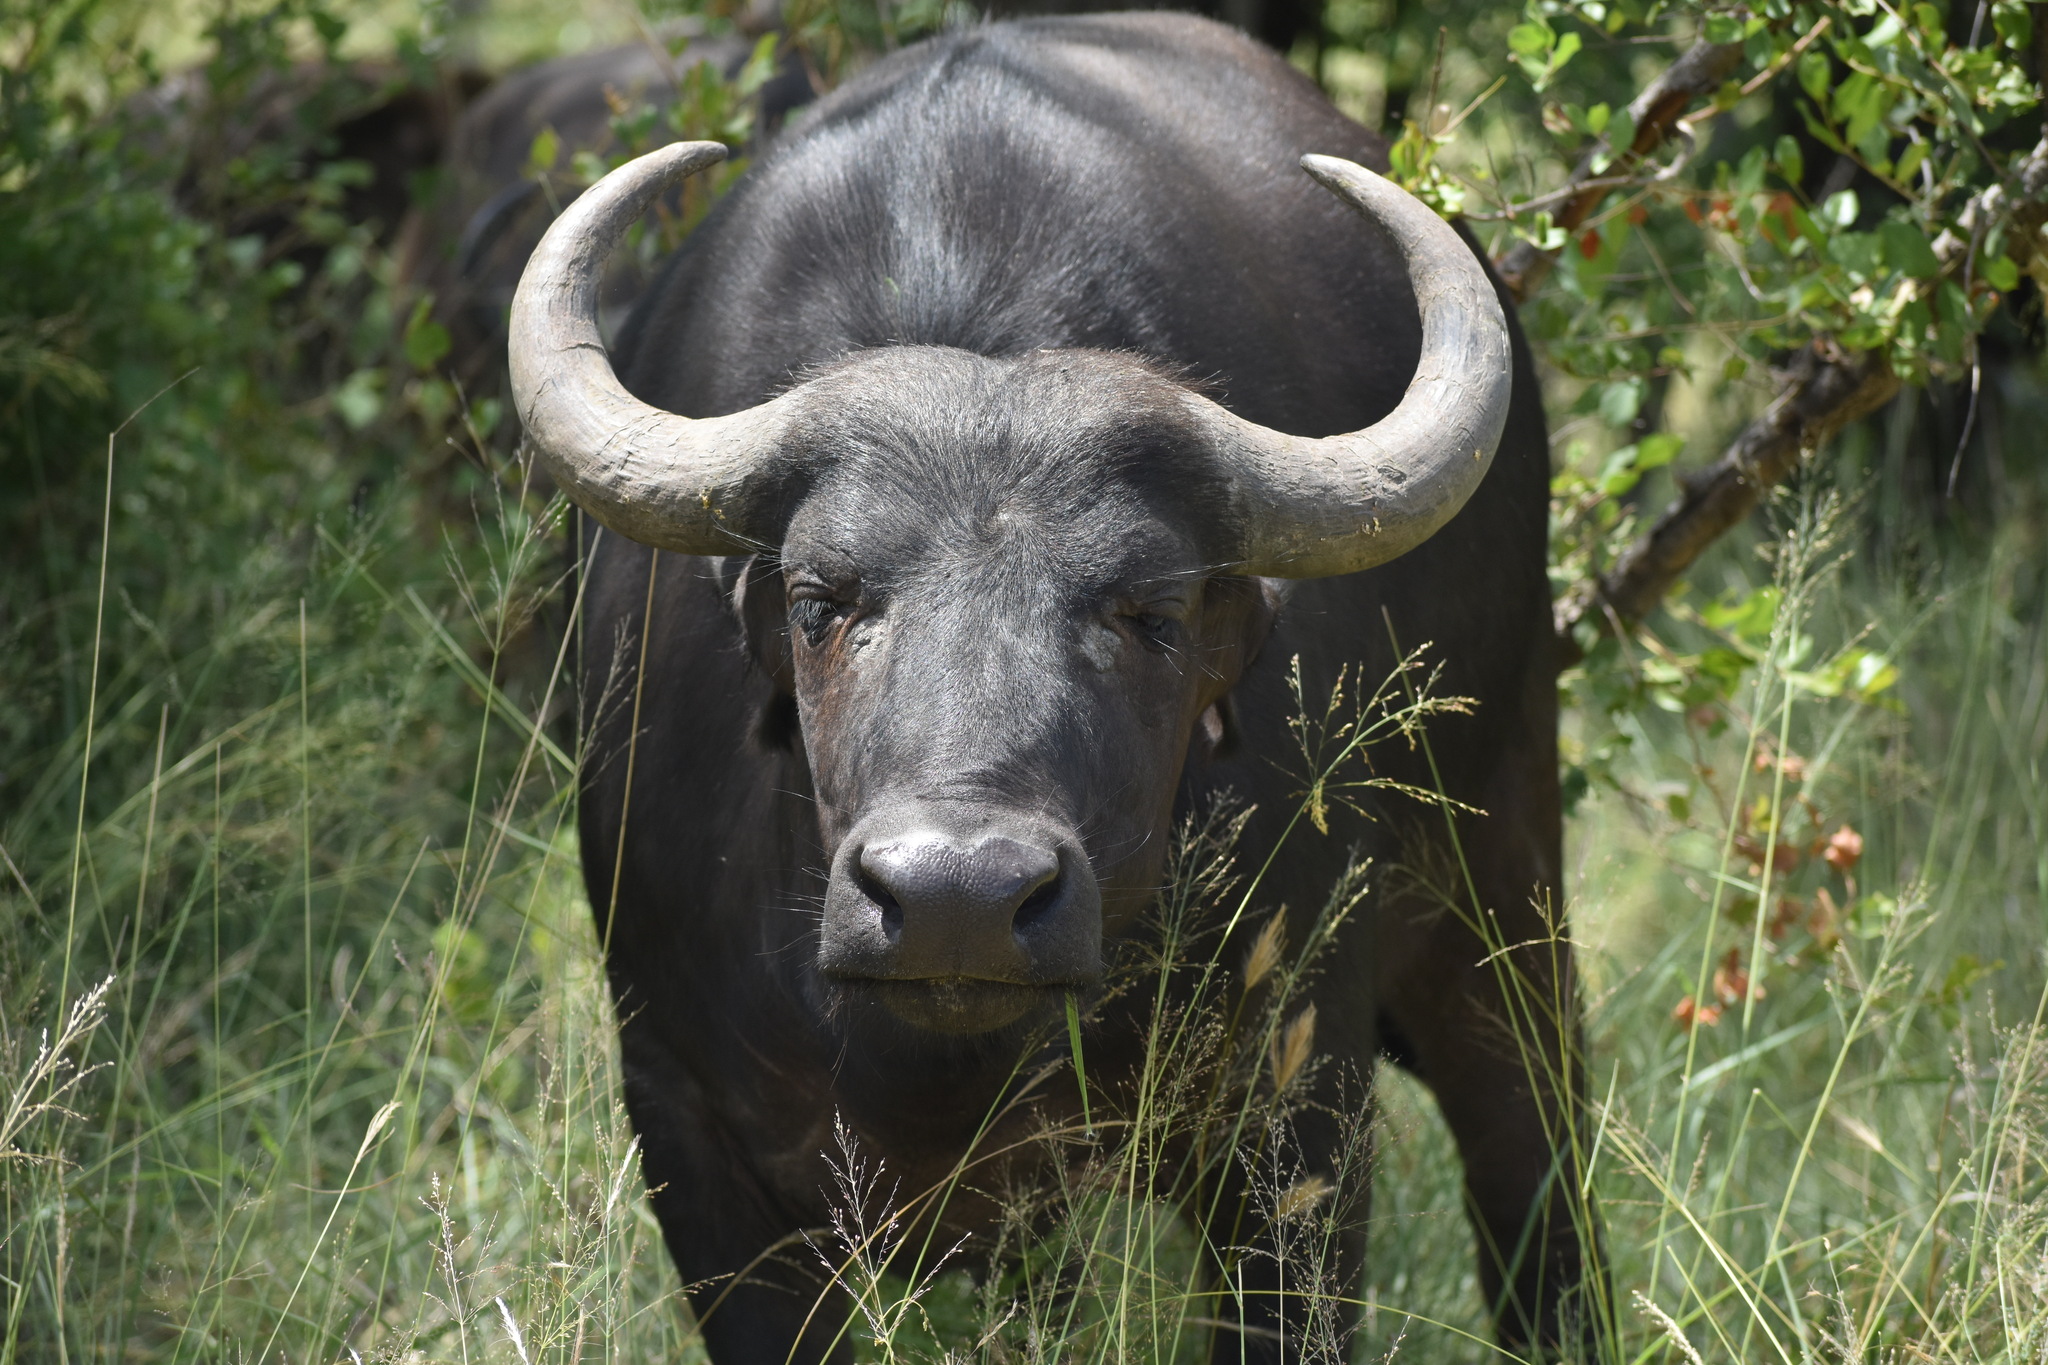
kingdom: Animalia
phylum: Chordata
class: Mammalia
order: Artiodactyla
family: Bovidae
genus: Syncerus
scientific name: Syncerus caffer
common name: African buffalo
